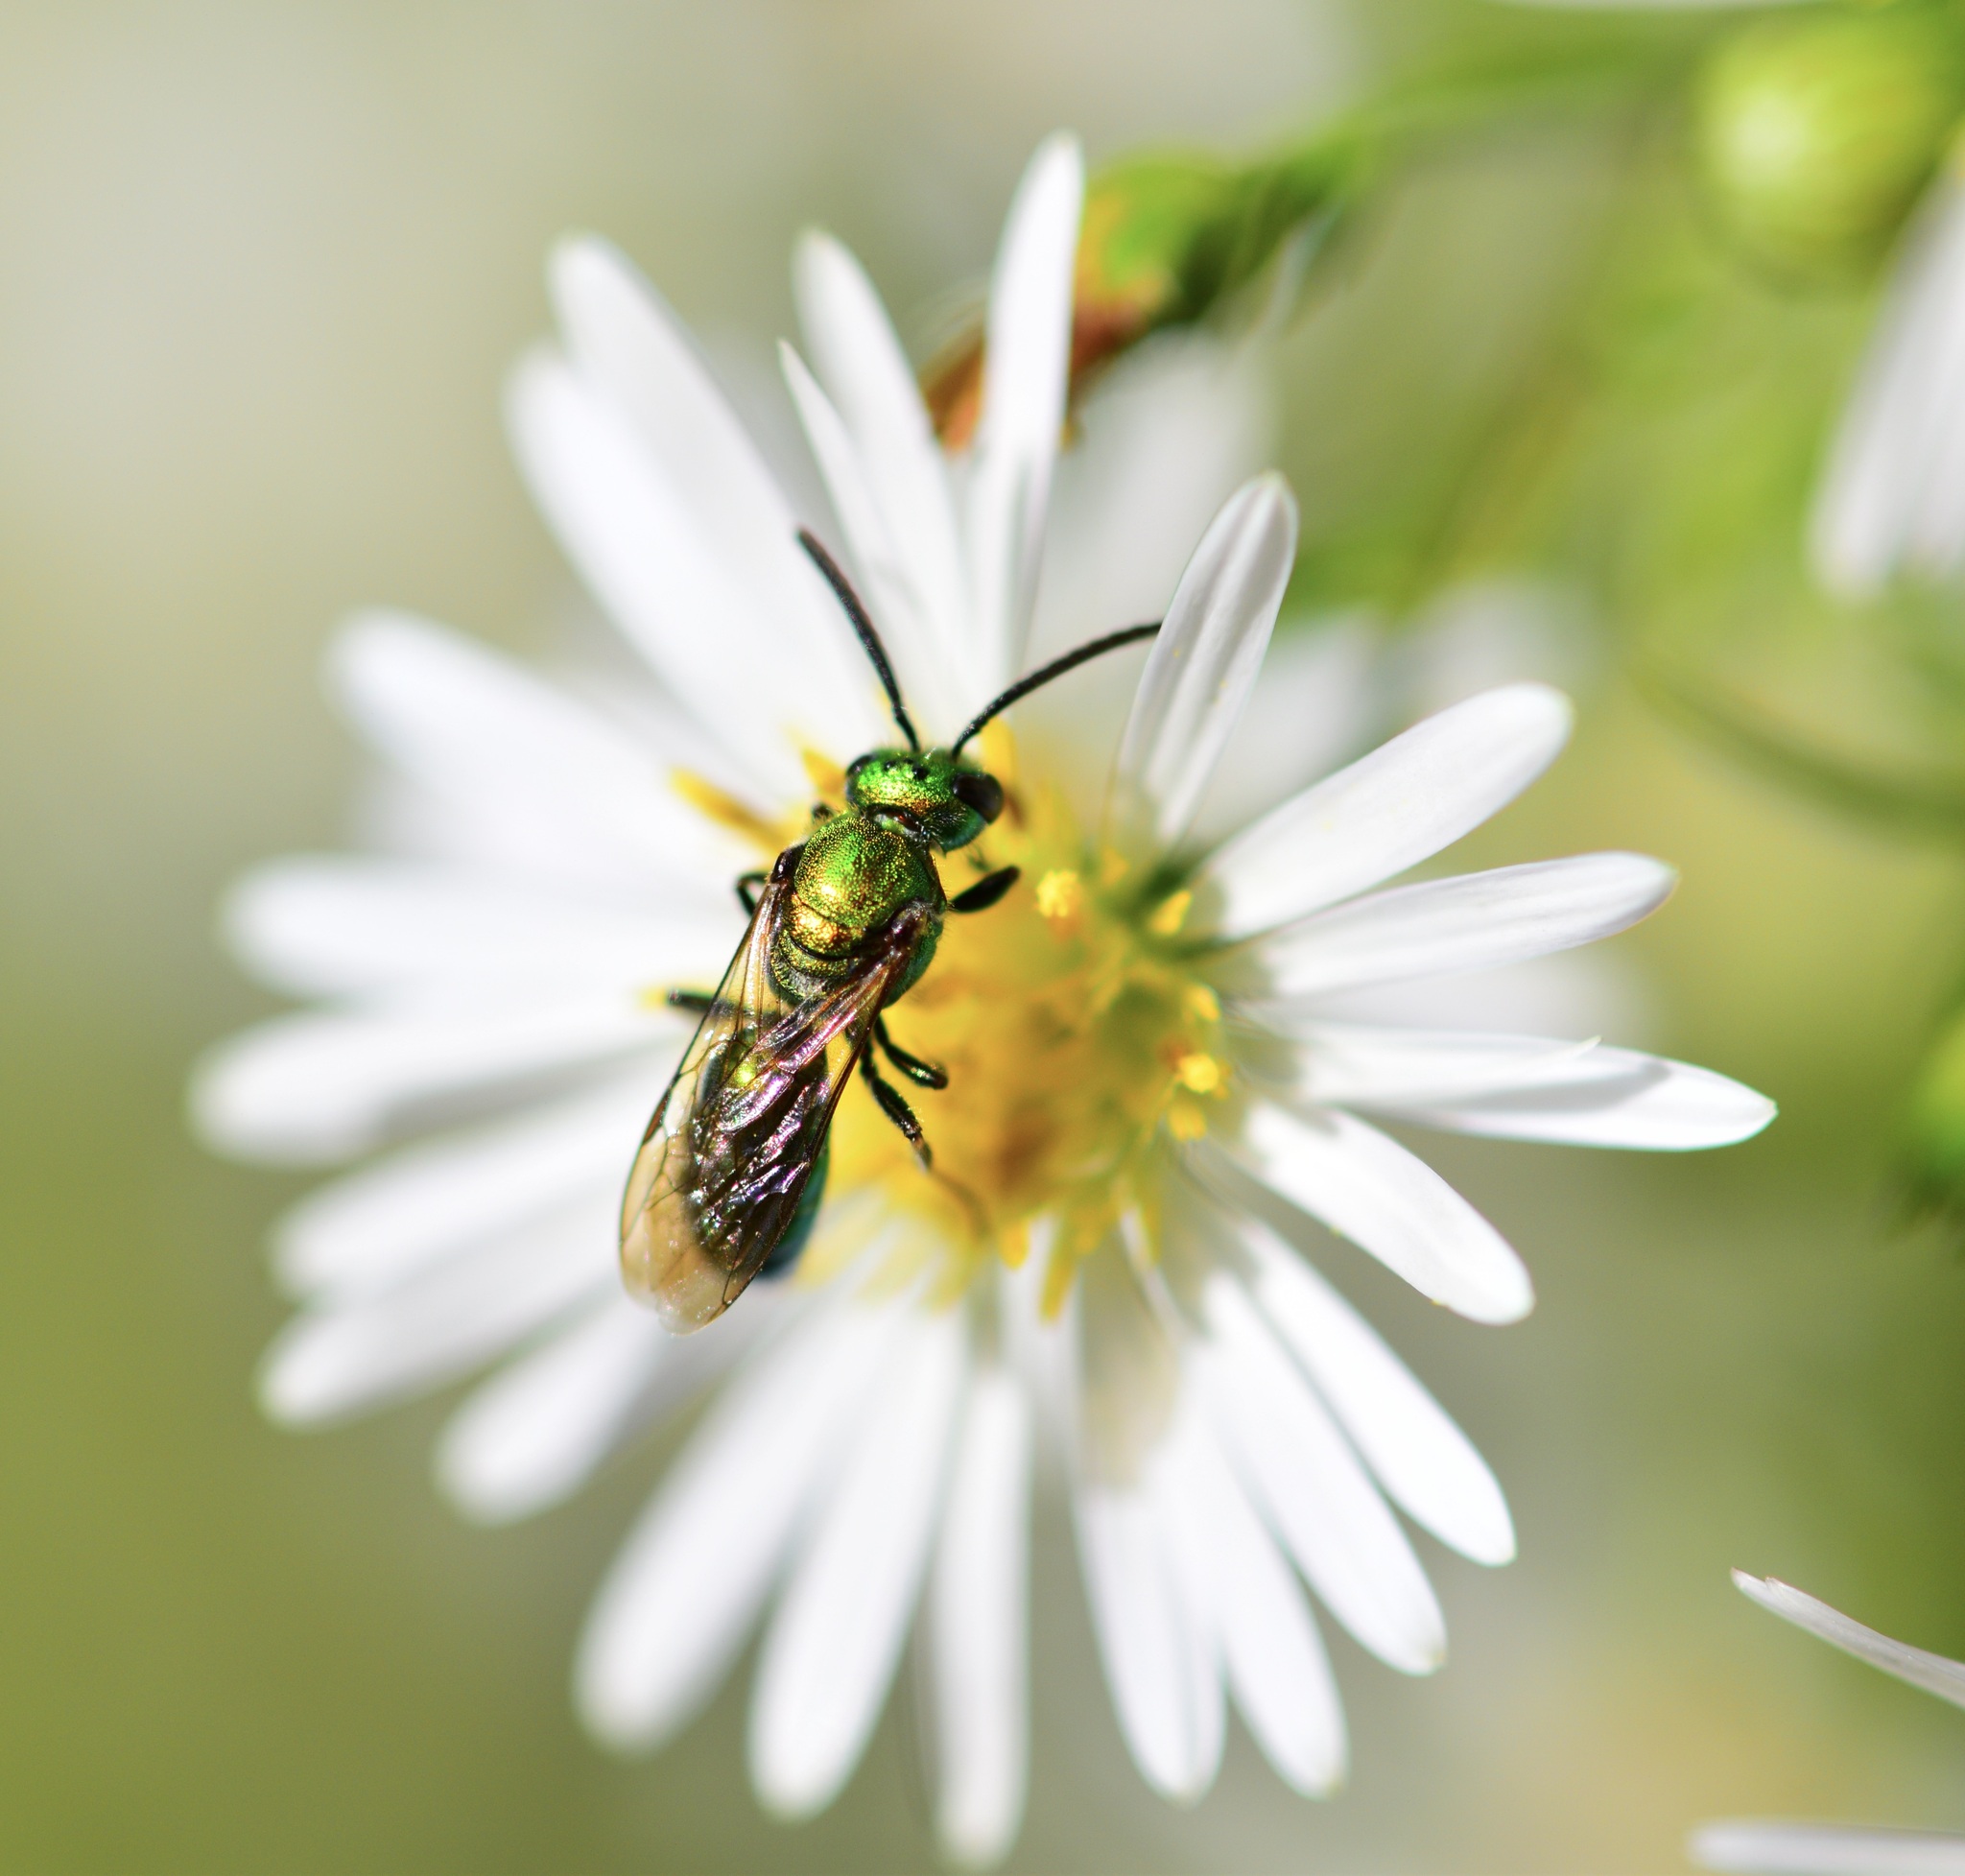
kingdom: Animalia
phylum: Arthropoda
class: Insecta
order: Hymenoptera
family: Halictidae
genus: Augochlora
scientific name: Augochlora pura
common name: Pure green sweat bee
